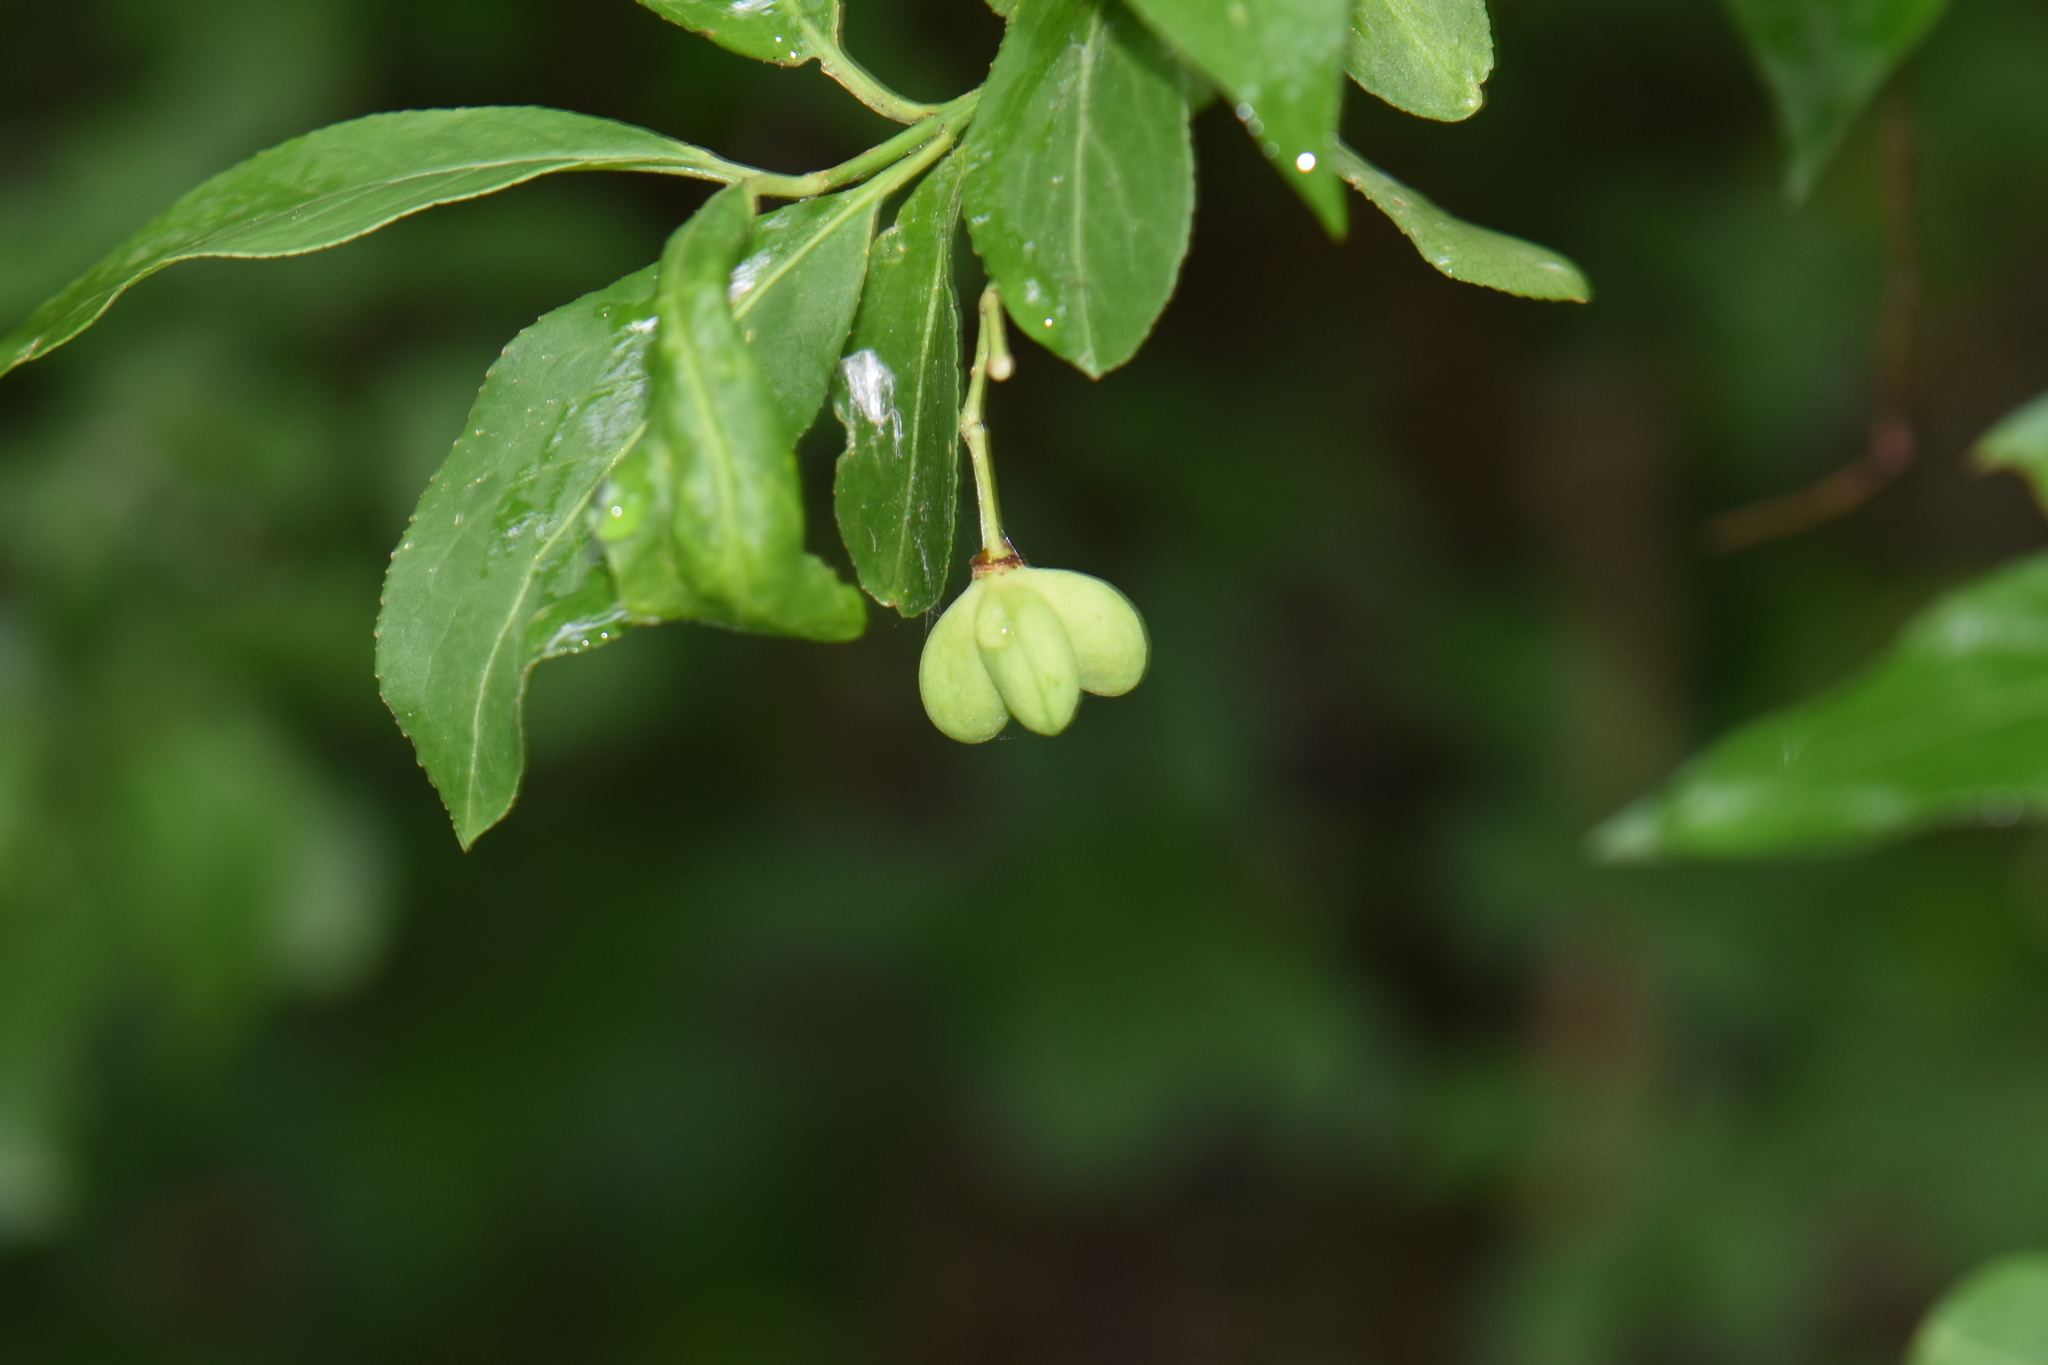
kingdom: Plantae
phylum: Tracheophyta
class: Magnoliopsida
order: Celastrales
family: Celastraceae
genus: Euonymus
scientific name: Euonymus europaeus
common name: Spindle
